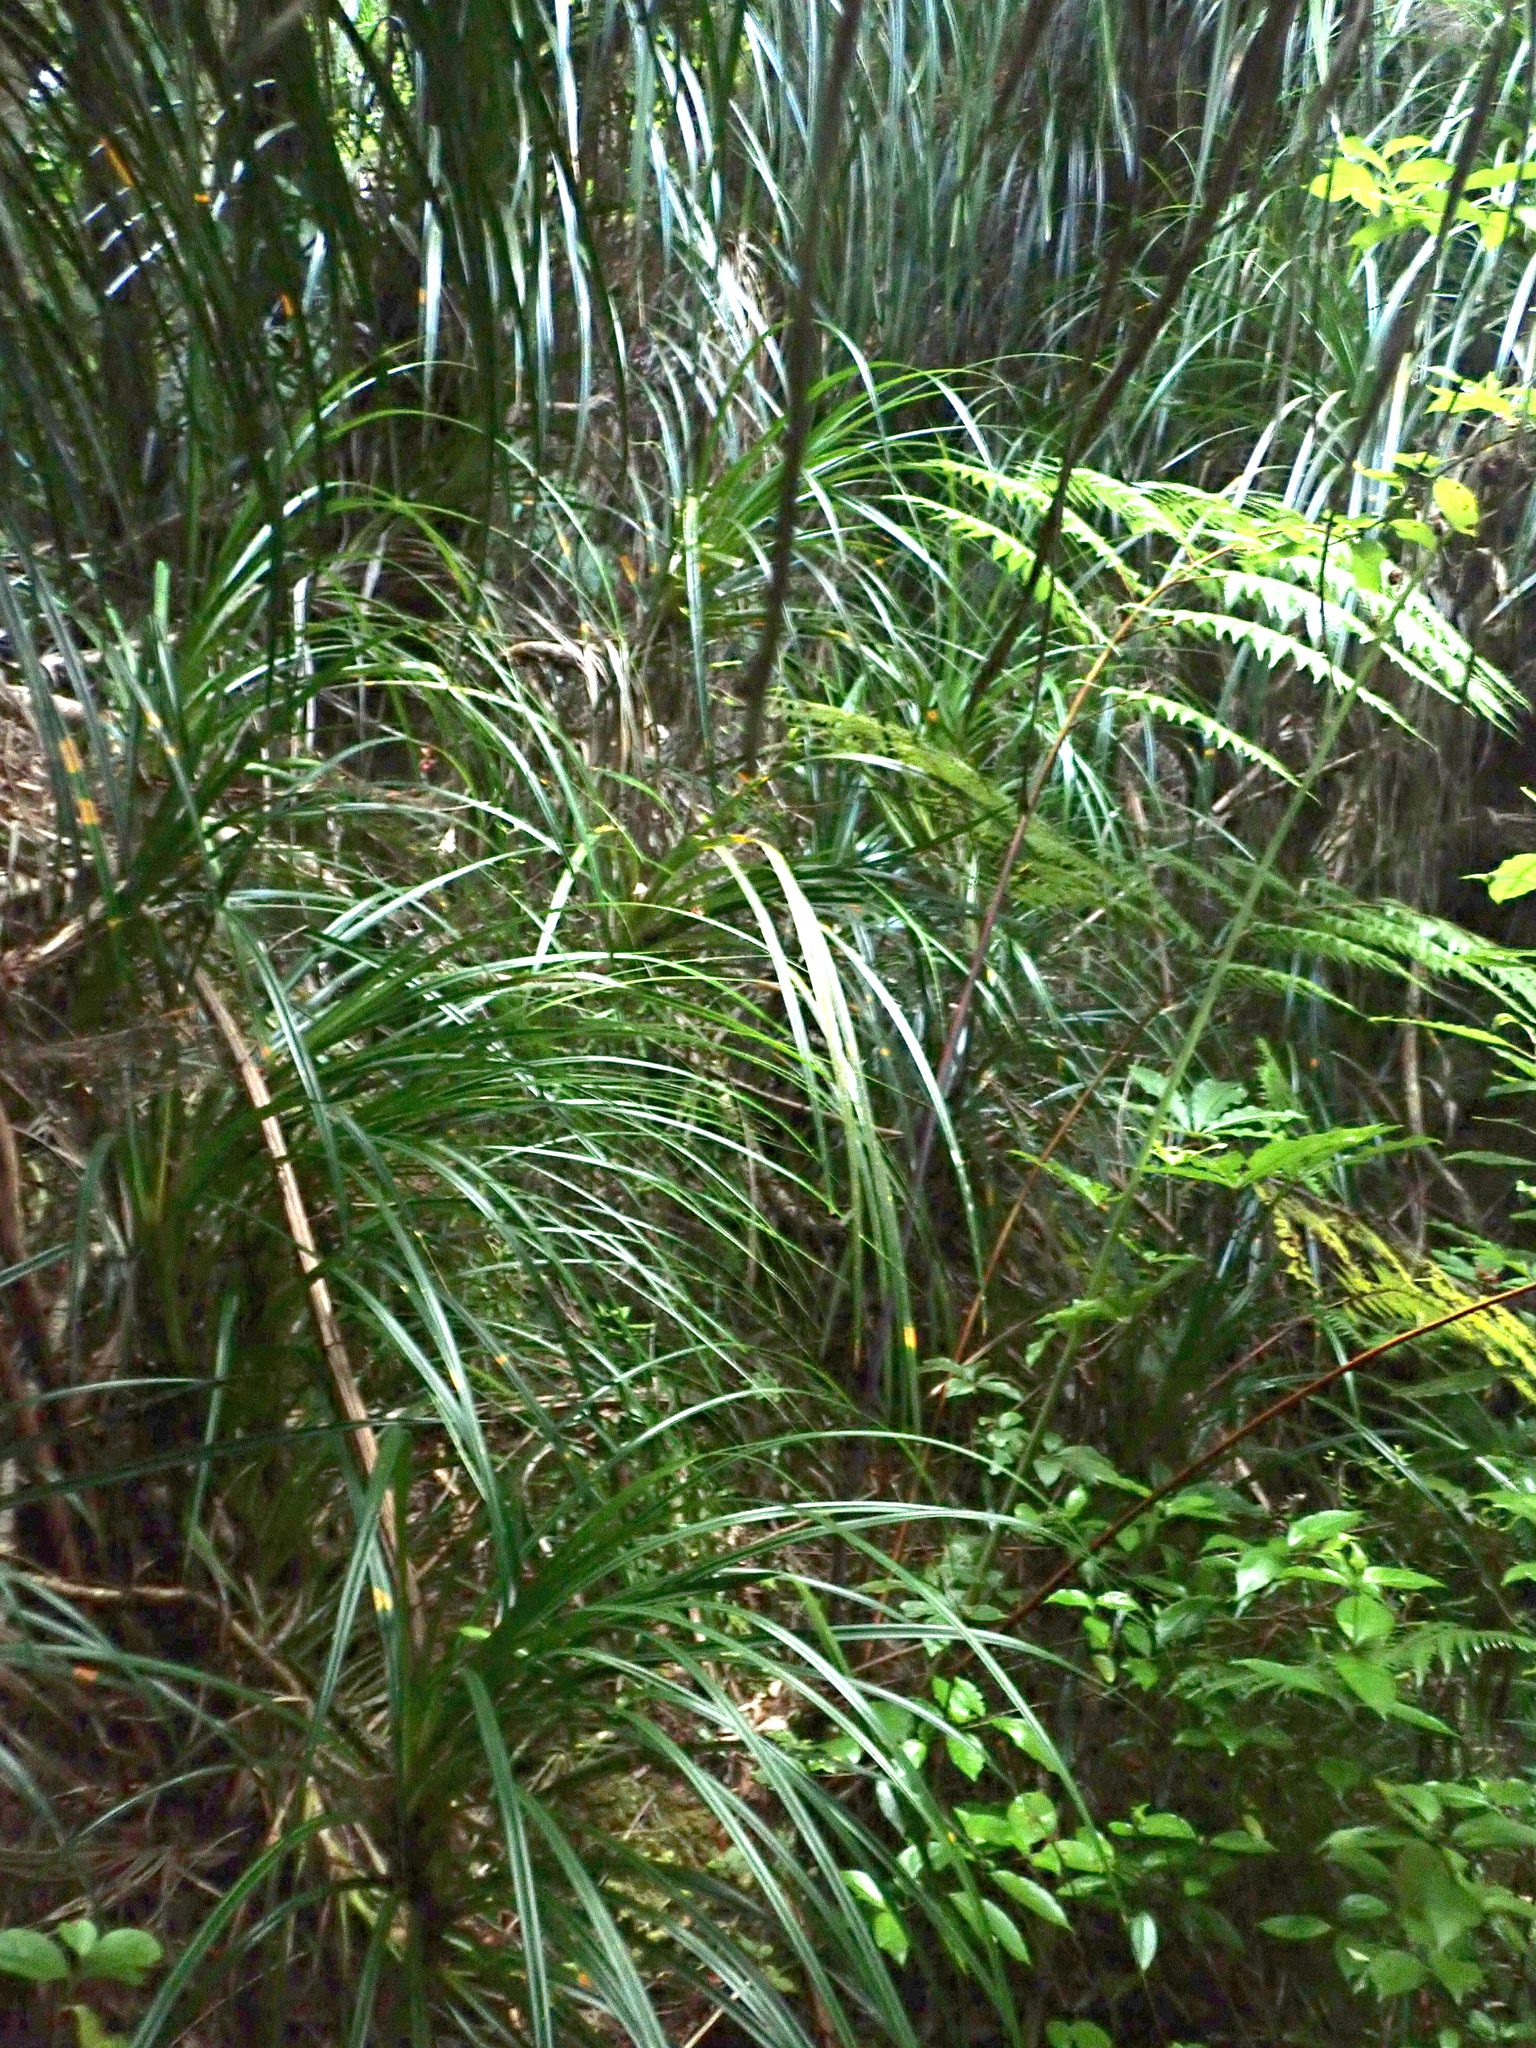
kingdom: Plantae
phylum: Tracheophyta
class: Liliopsida
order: Pandanales
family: Pandanaceae
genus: Freycinetia
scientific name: Freycinetia banksii
